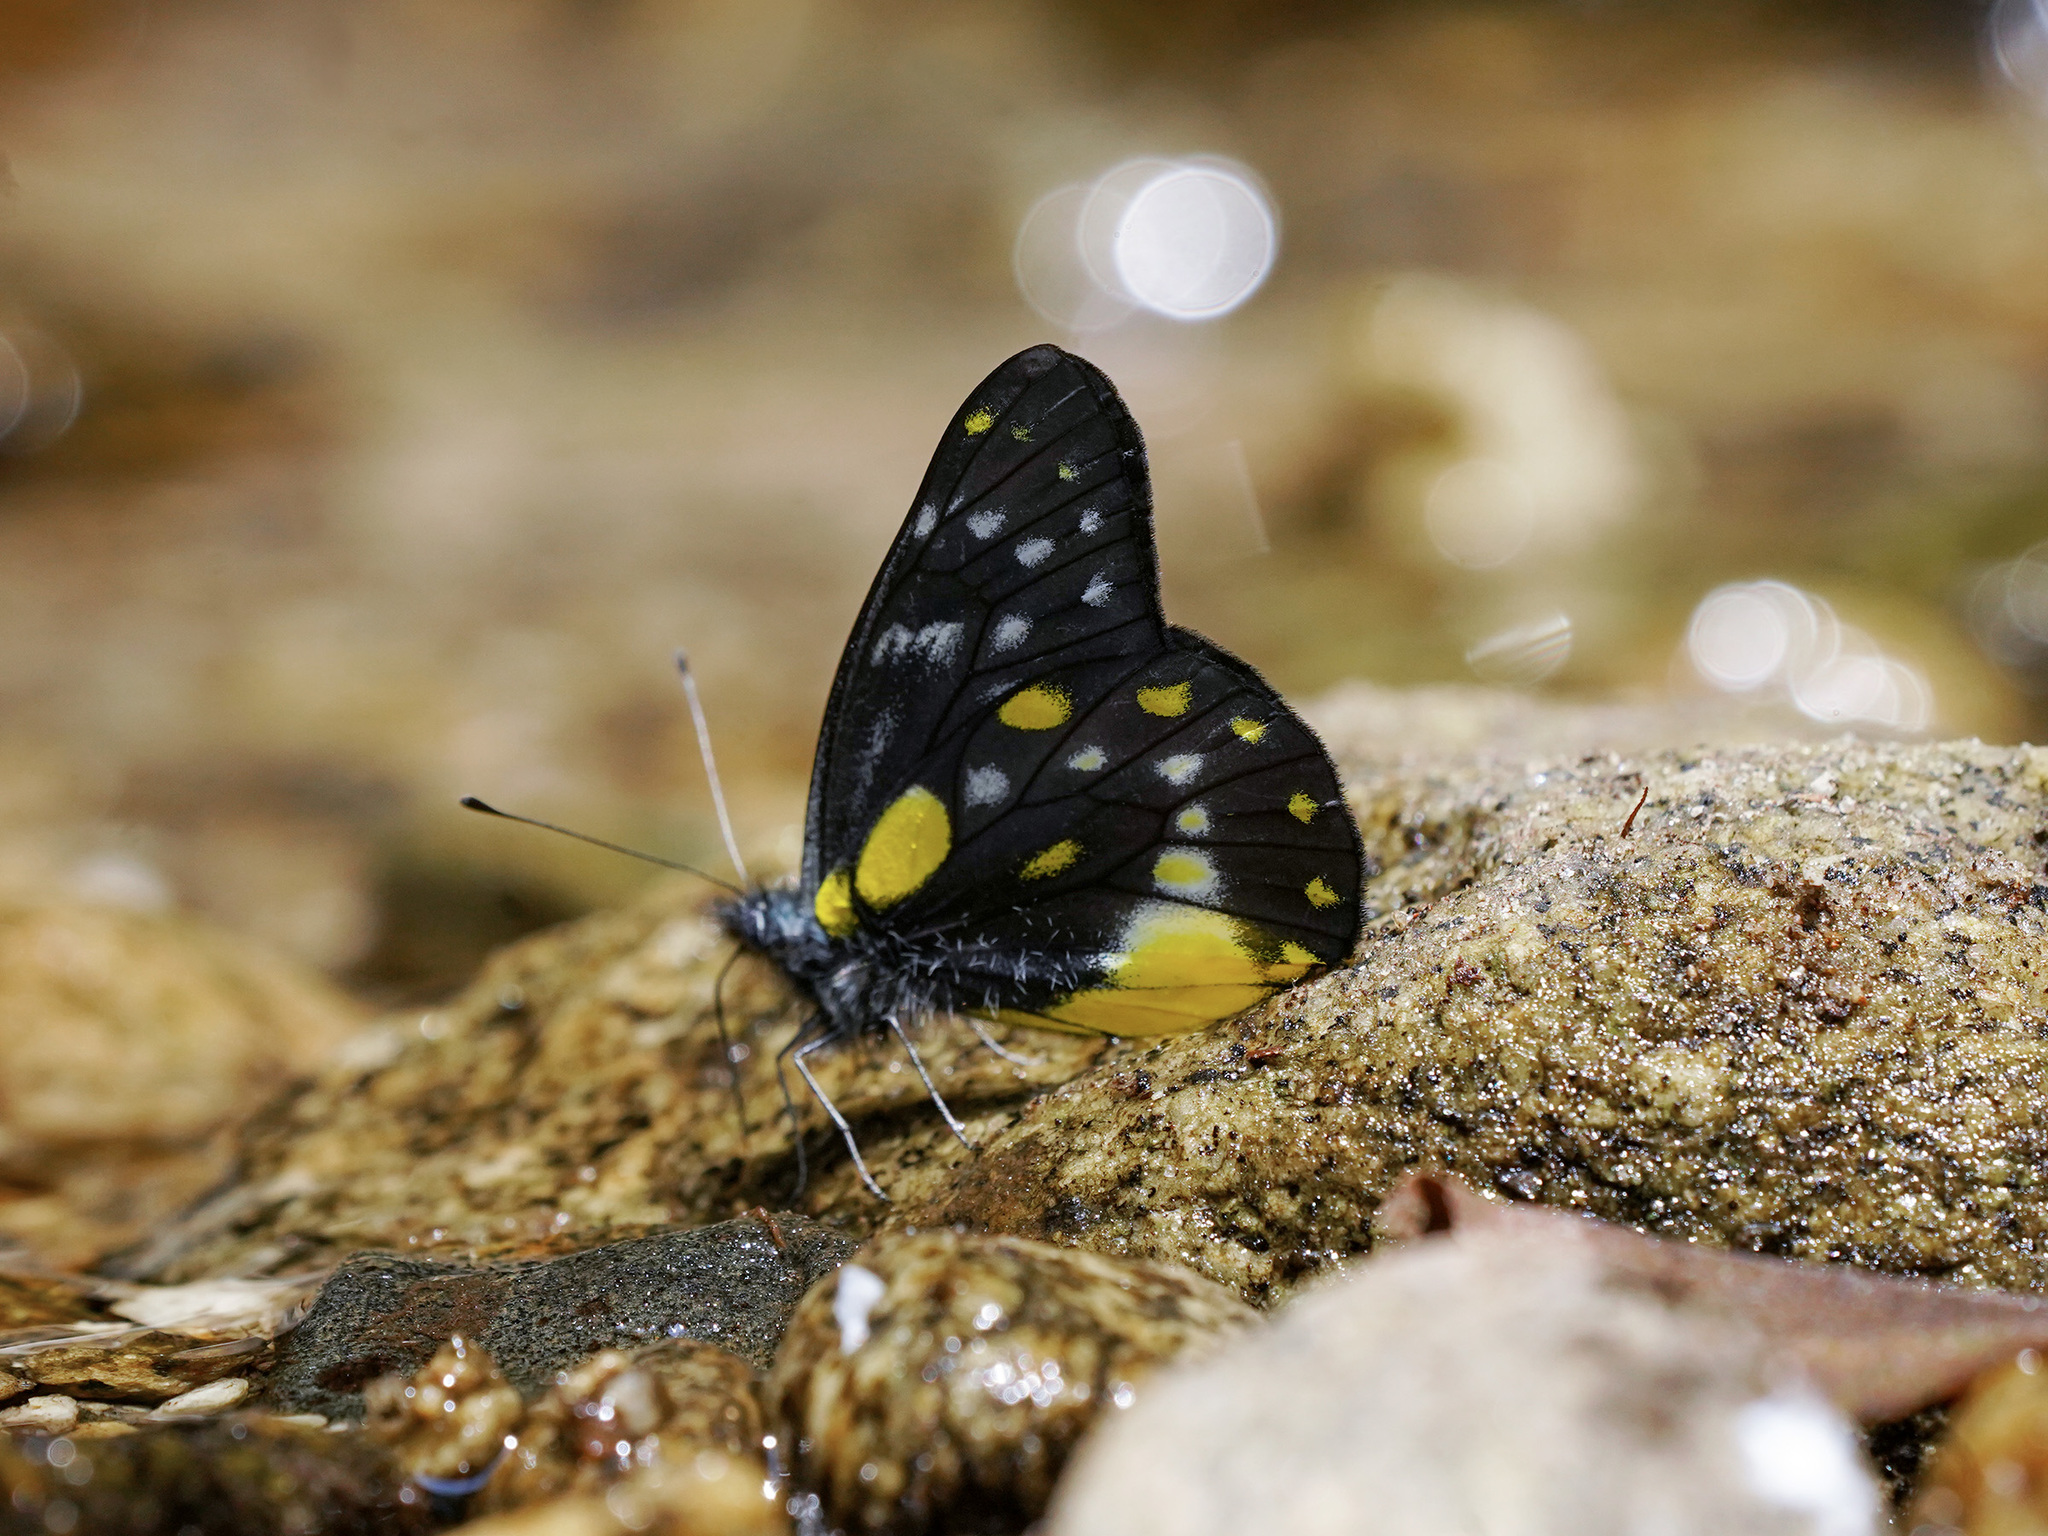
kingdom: Animalia
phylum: Arthropoda
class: Insecta
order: Lepidoptera
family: Pieridae
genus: Delias
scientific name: Delias belladonna
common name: Hill jezebel
